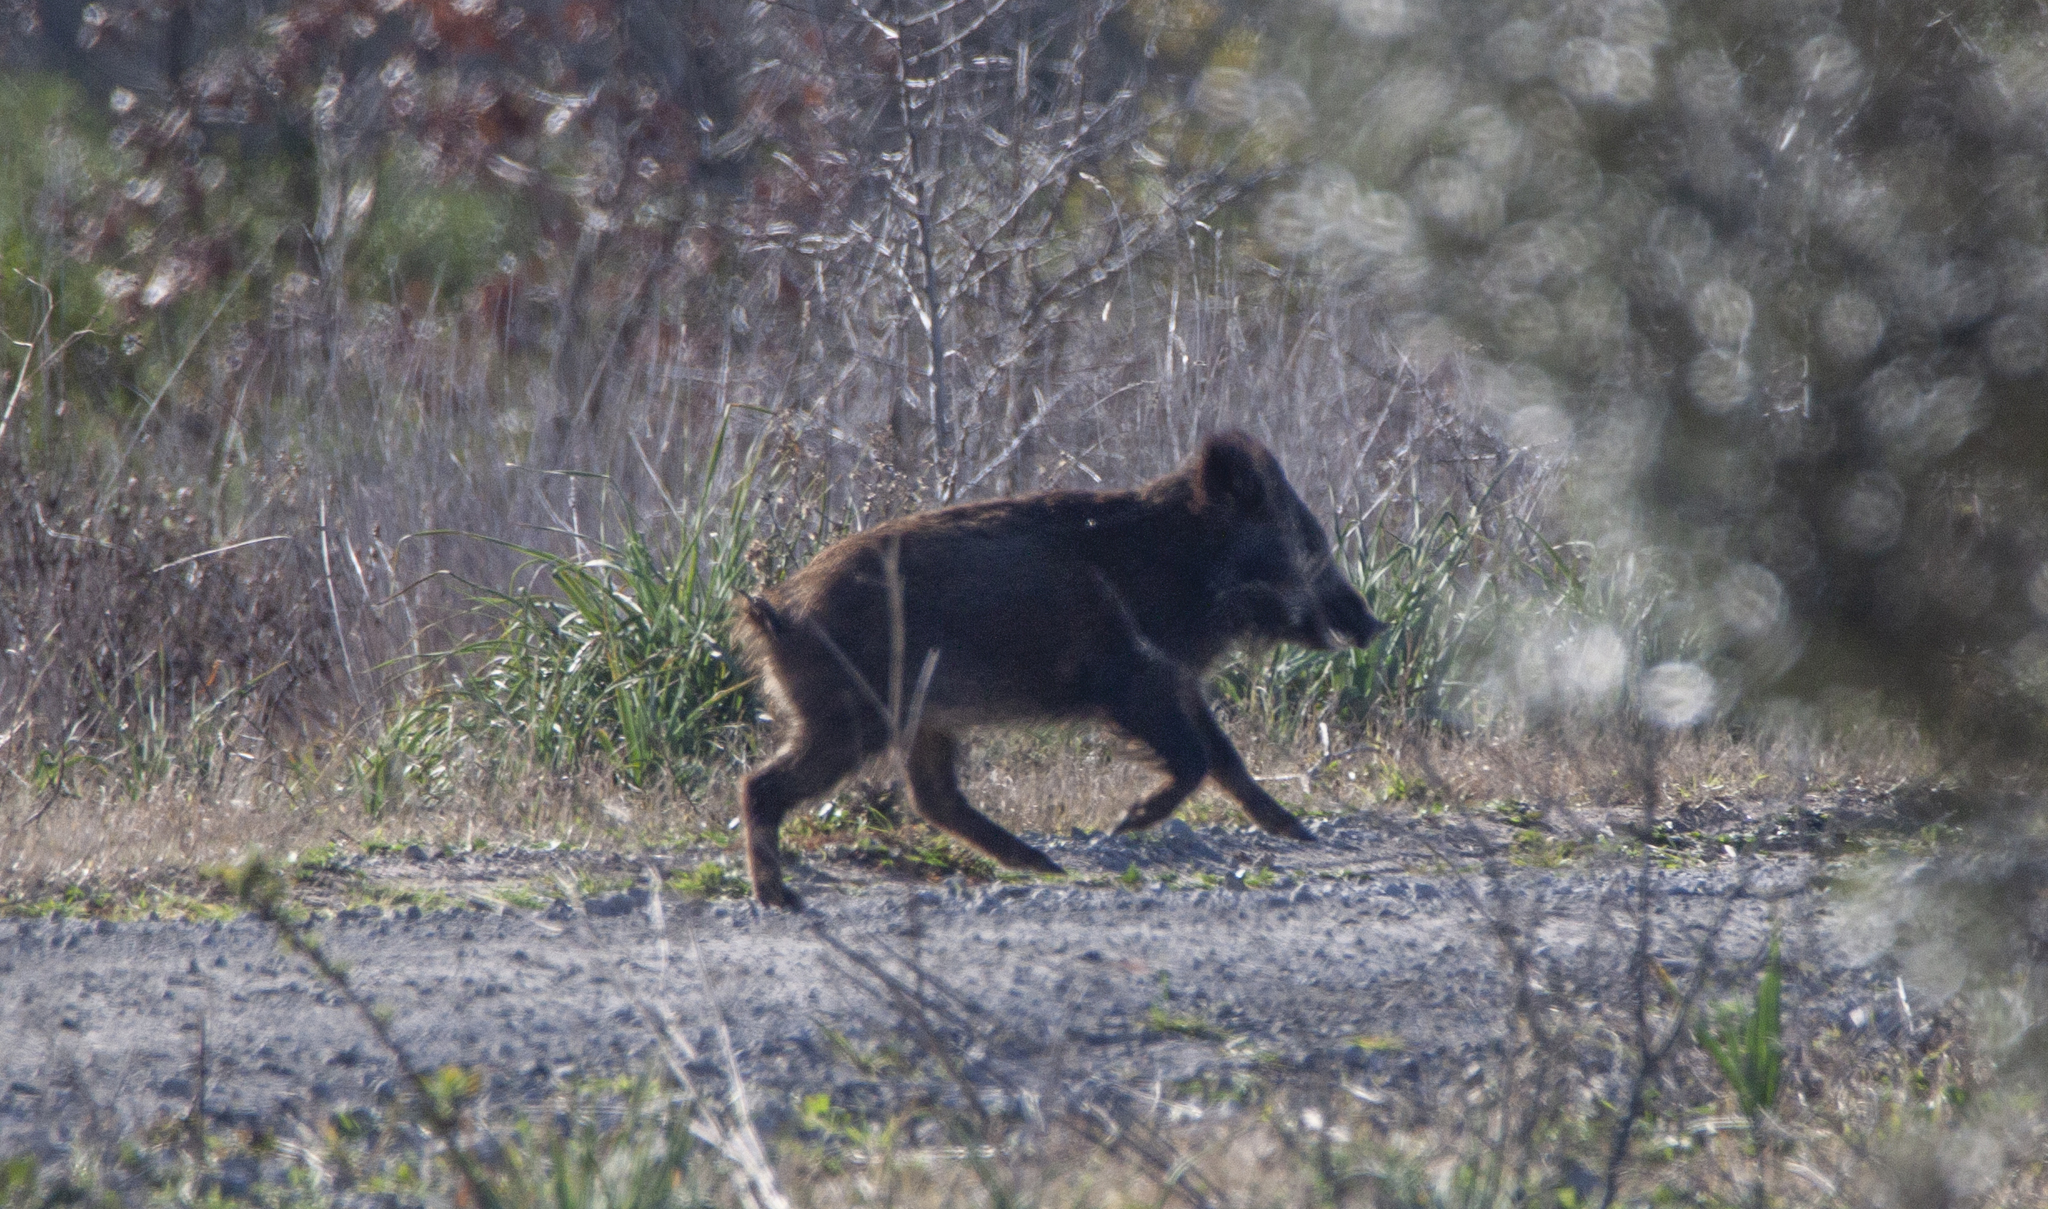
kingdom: Animalia
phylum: Chordata
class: Mammalia
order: Artiodactyla
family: Suidae
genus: Sus
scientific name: Sus scrofa
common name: Wild boar
